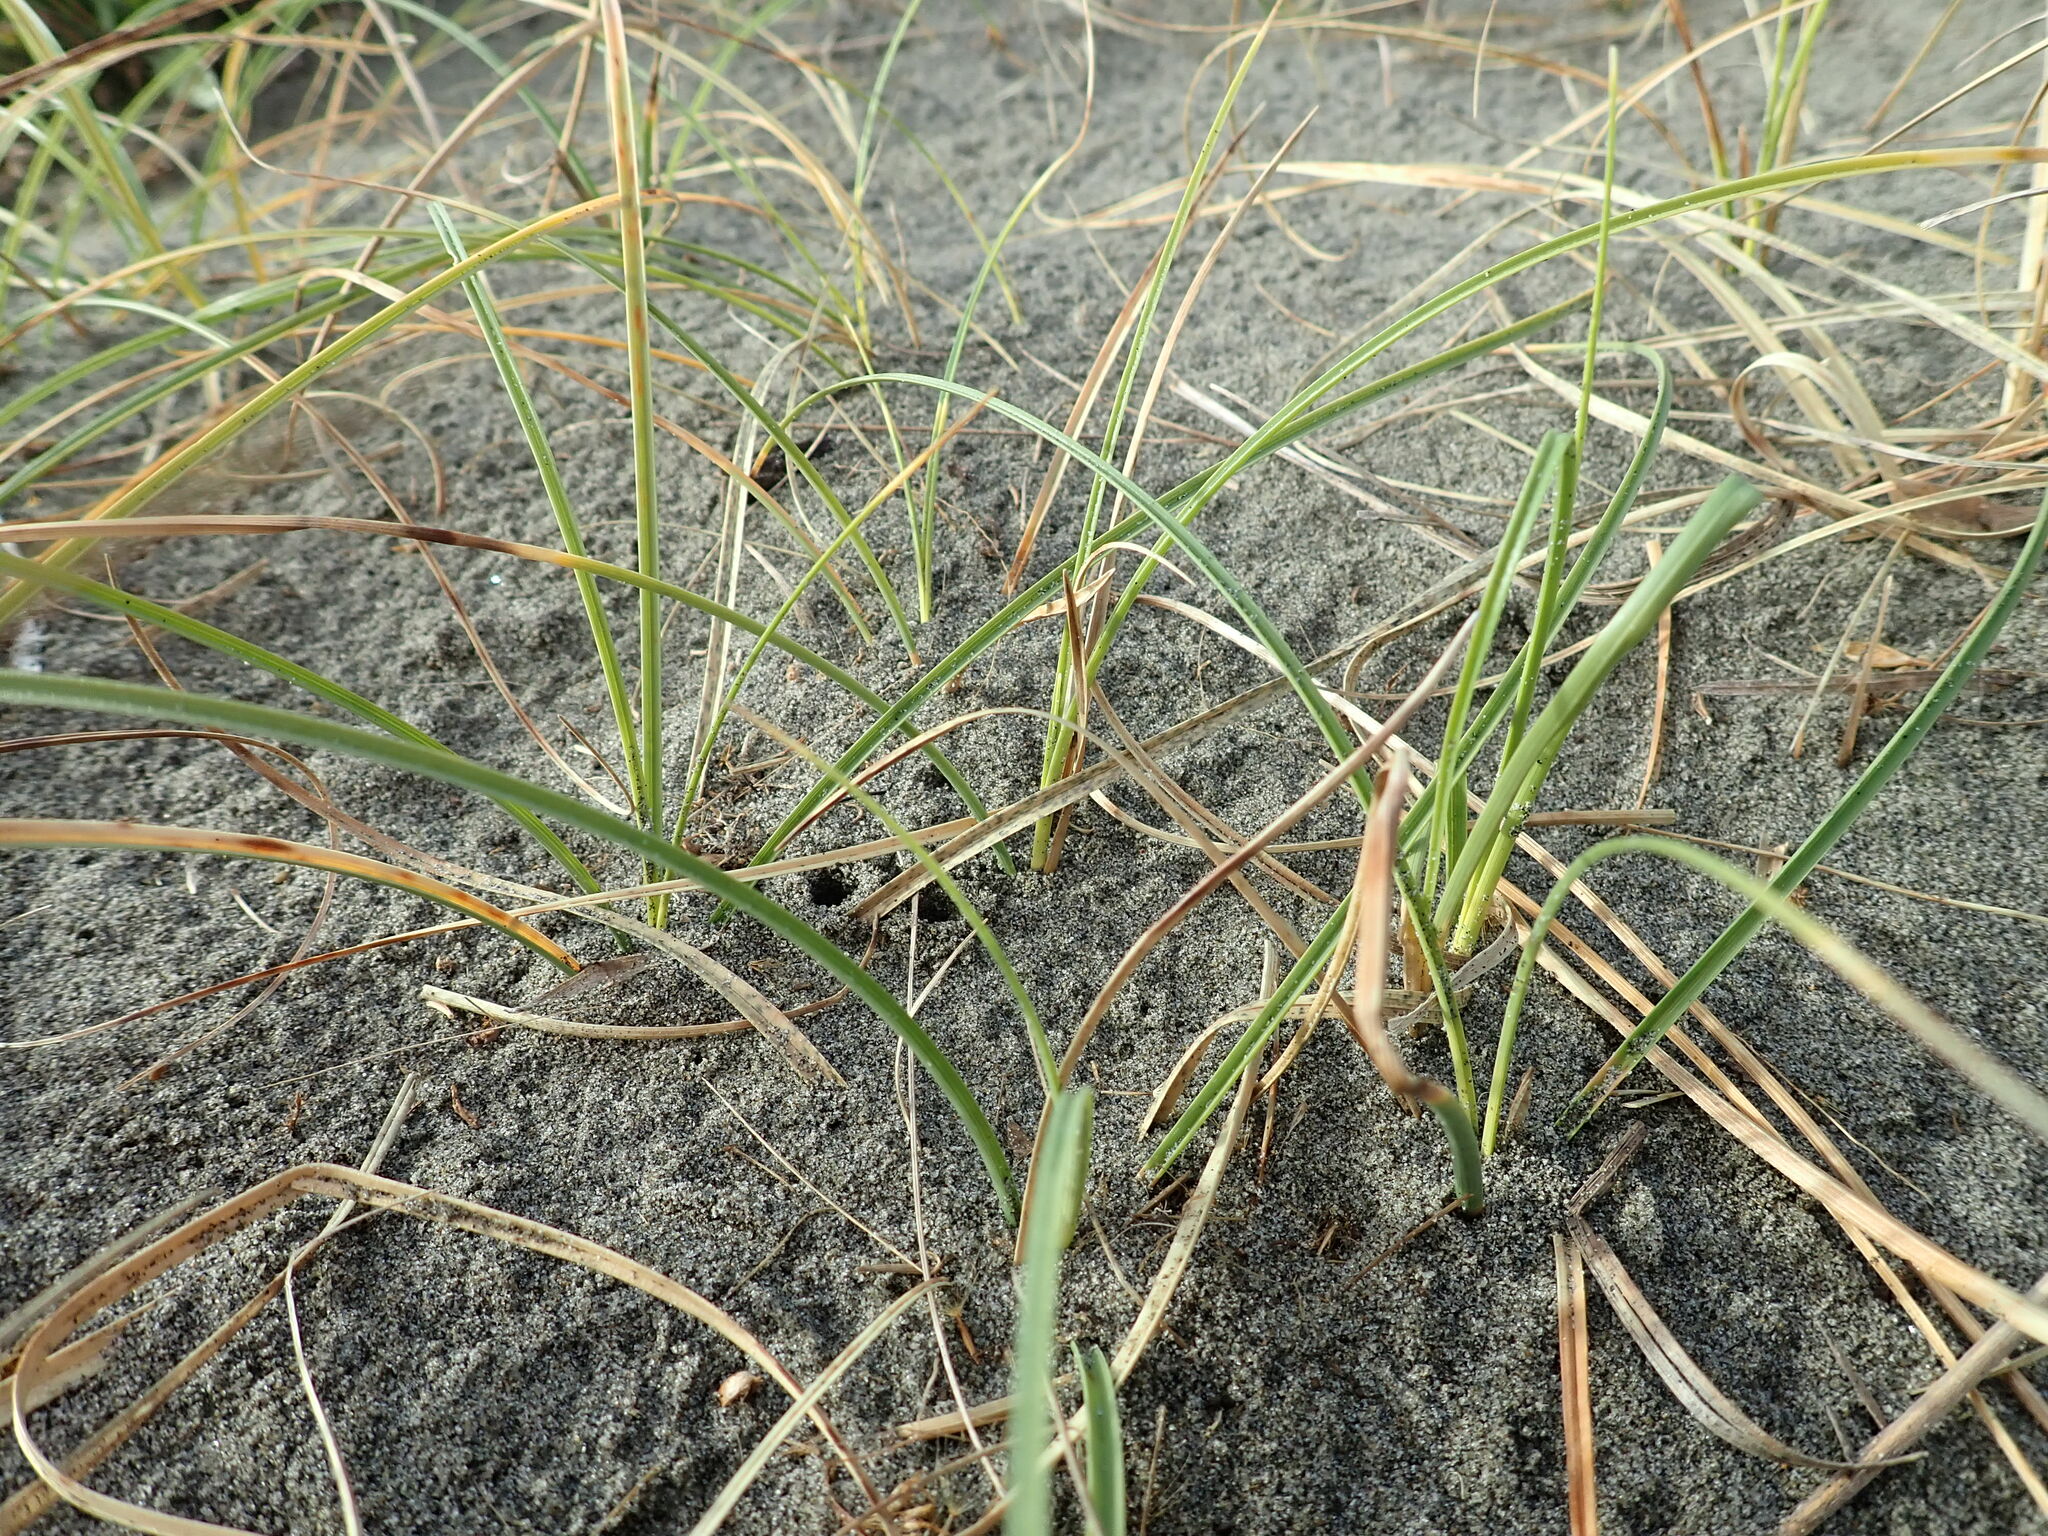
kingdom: Plantae
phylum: Tracheophyta
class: Liliopsida
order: Poales
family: Cyperaceae
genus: Carex
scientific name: Carex pumila
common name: Dwarf sedge
